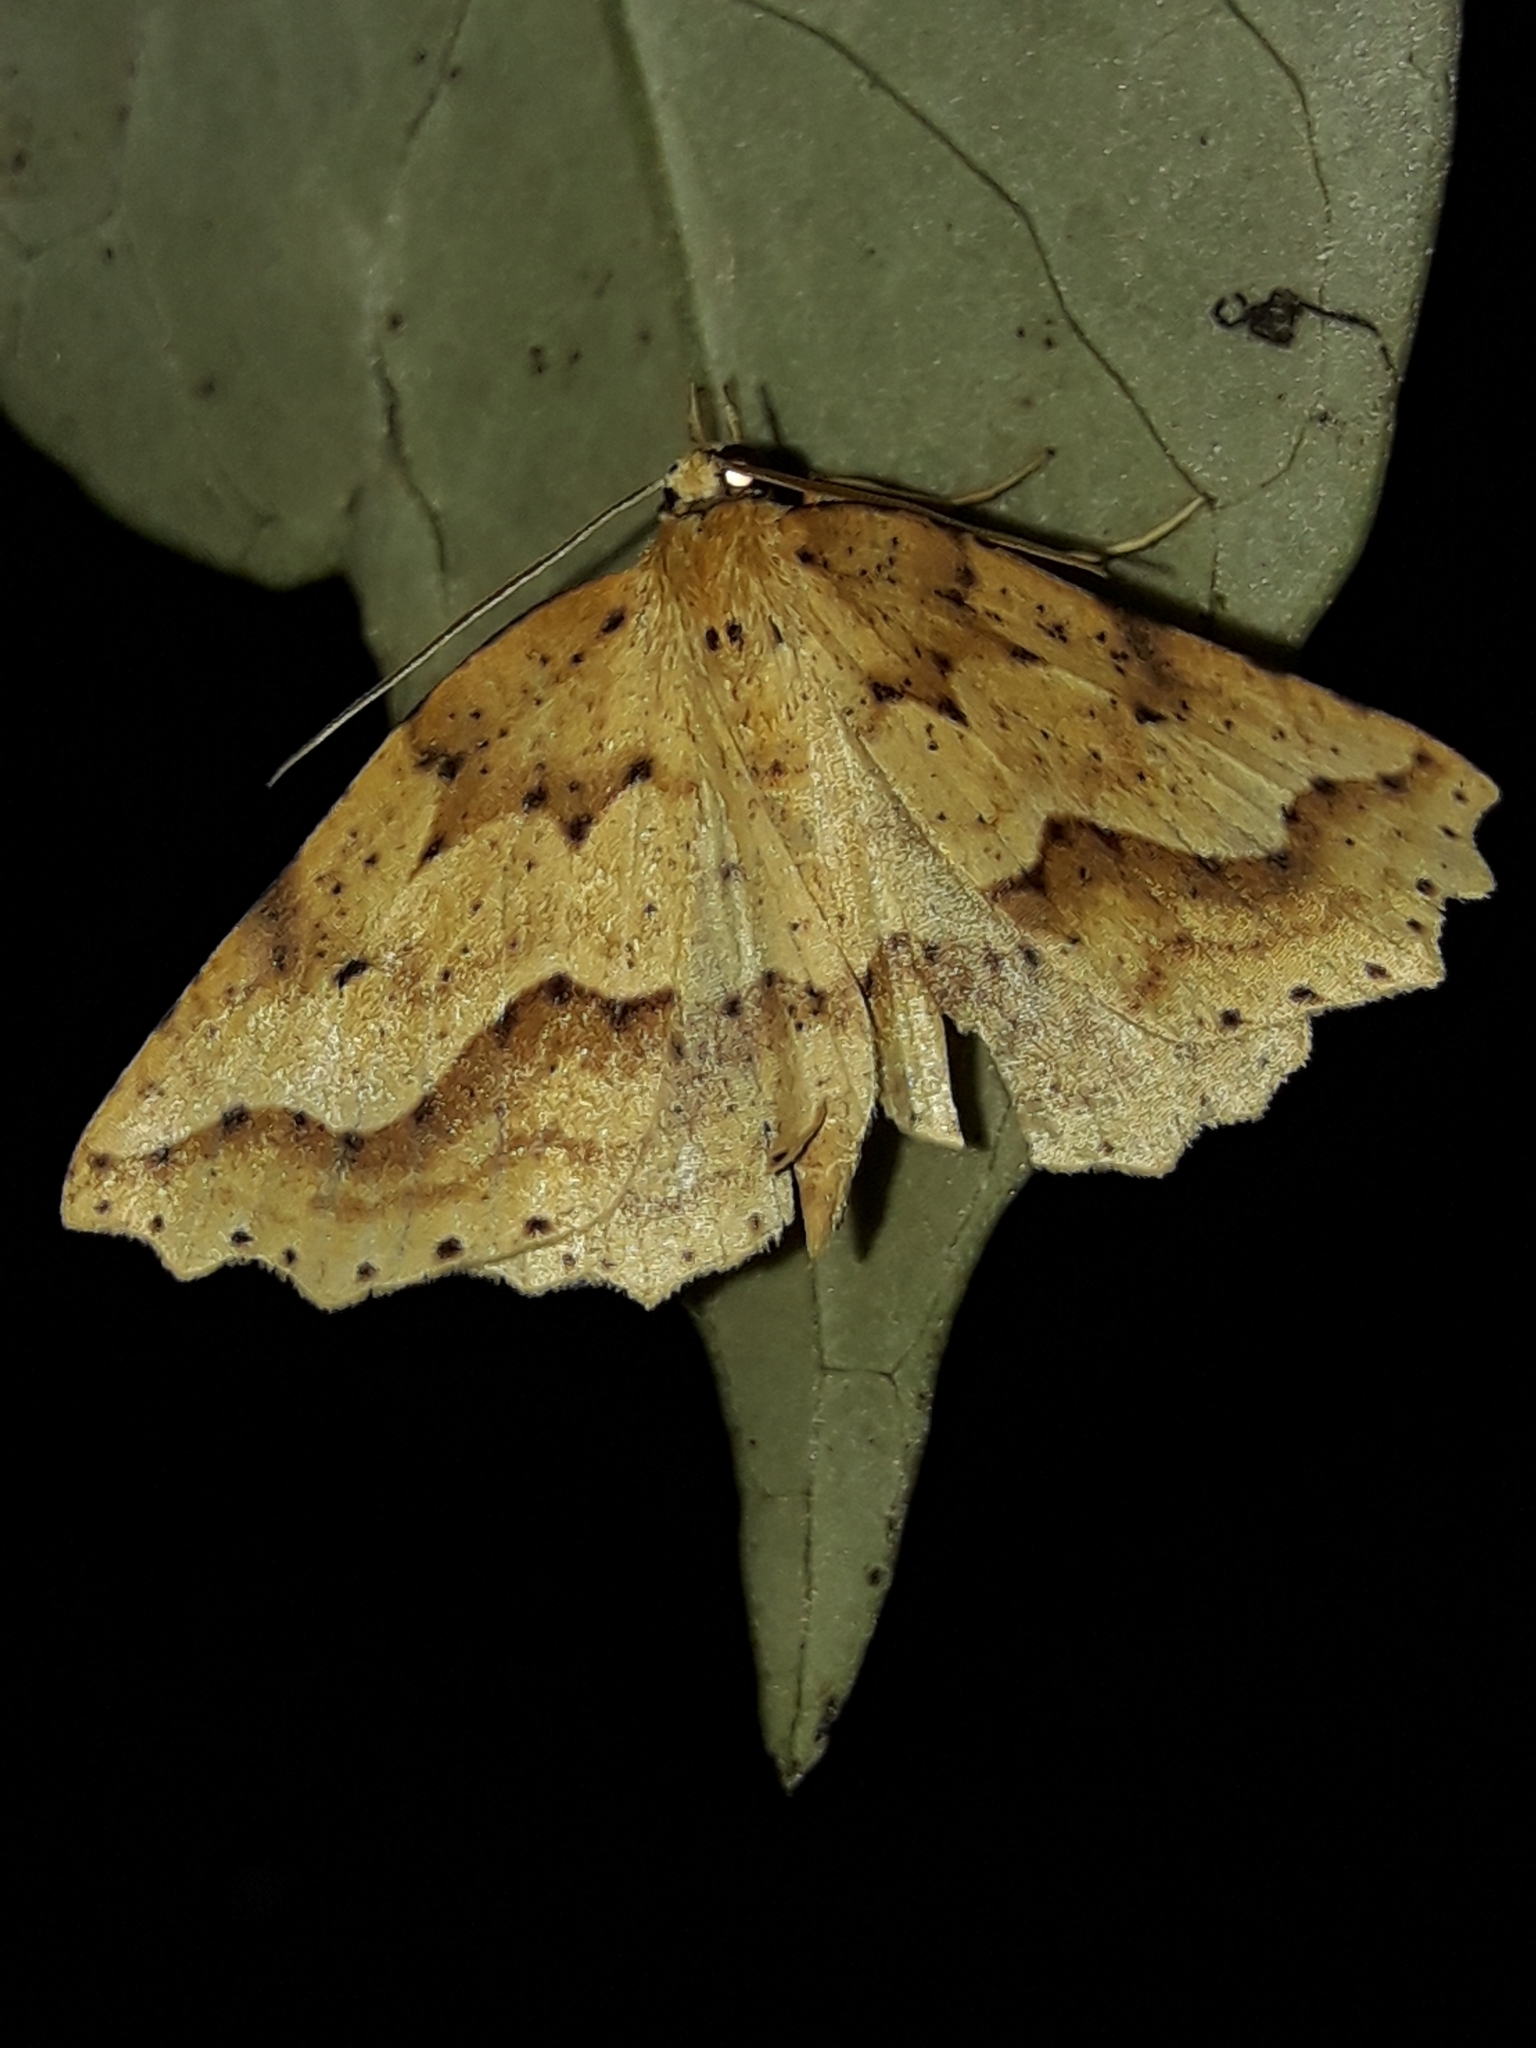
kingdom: Animalia
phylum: Arthropoda
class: Insecta
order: Lepidoptera
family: Geometridae
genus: Ischalis
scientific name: Ischalis variabilis
